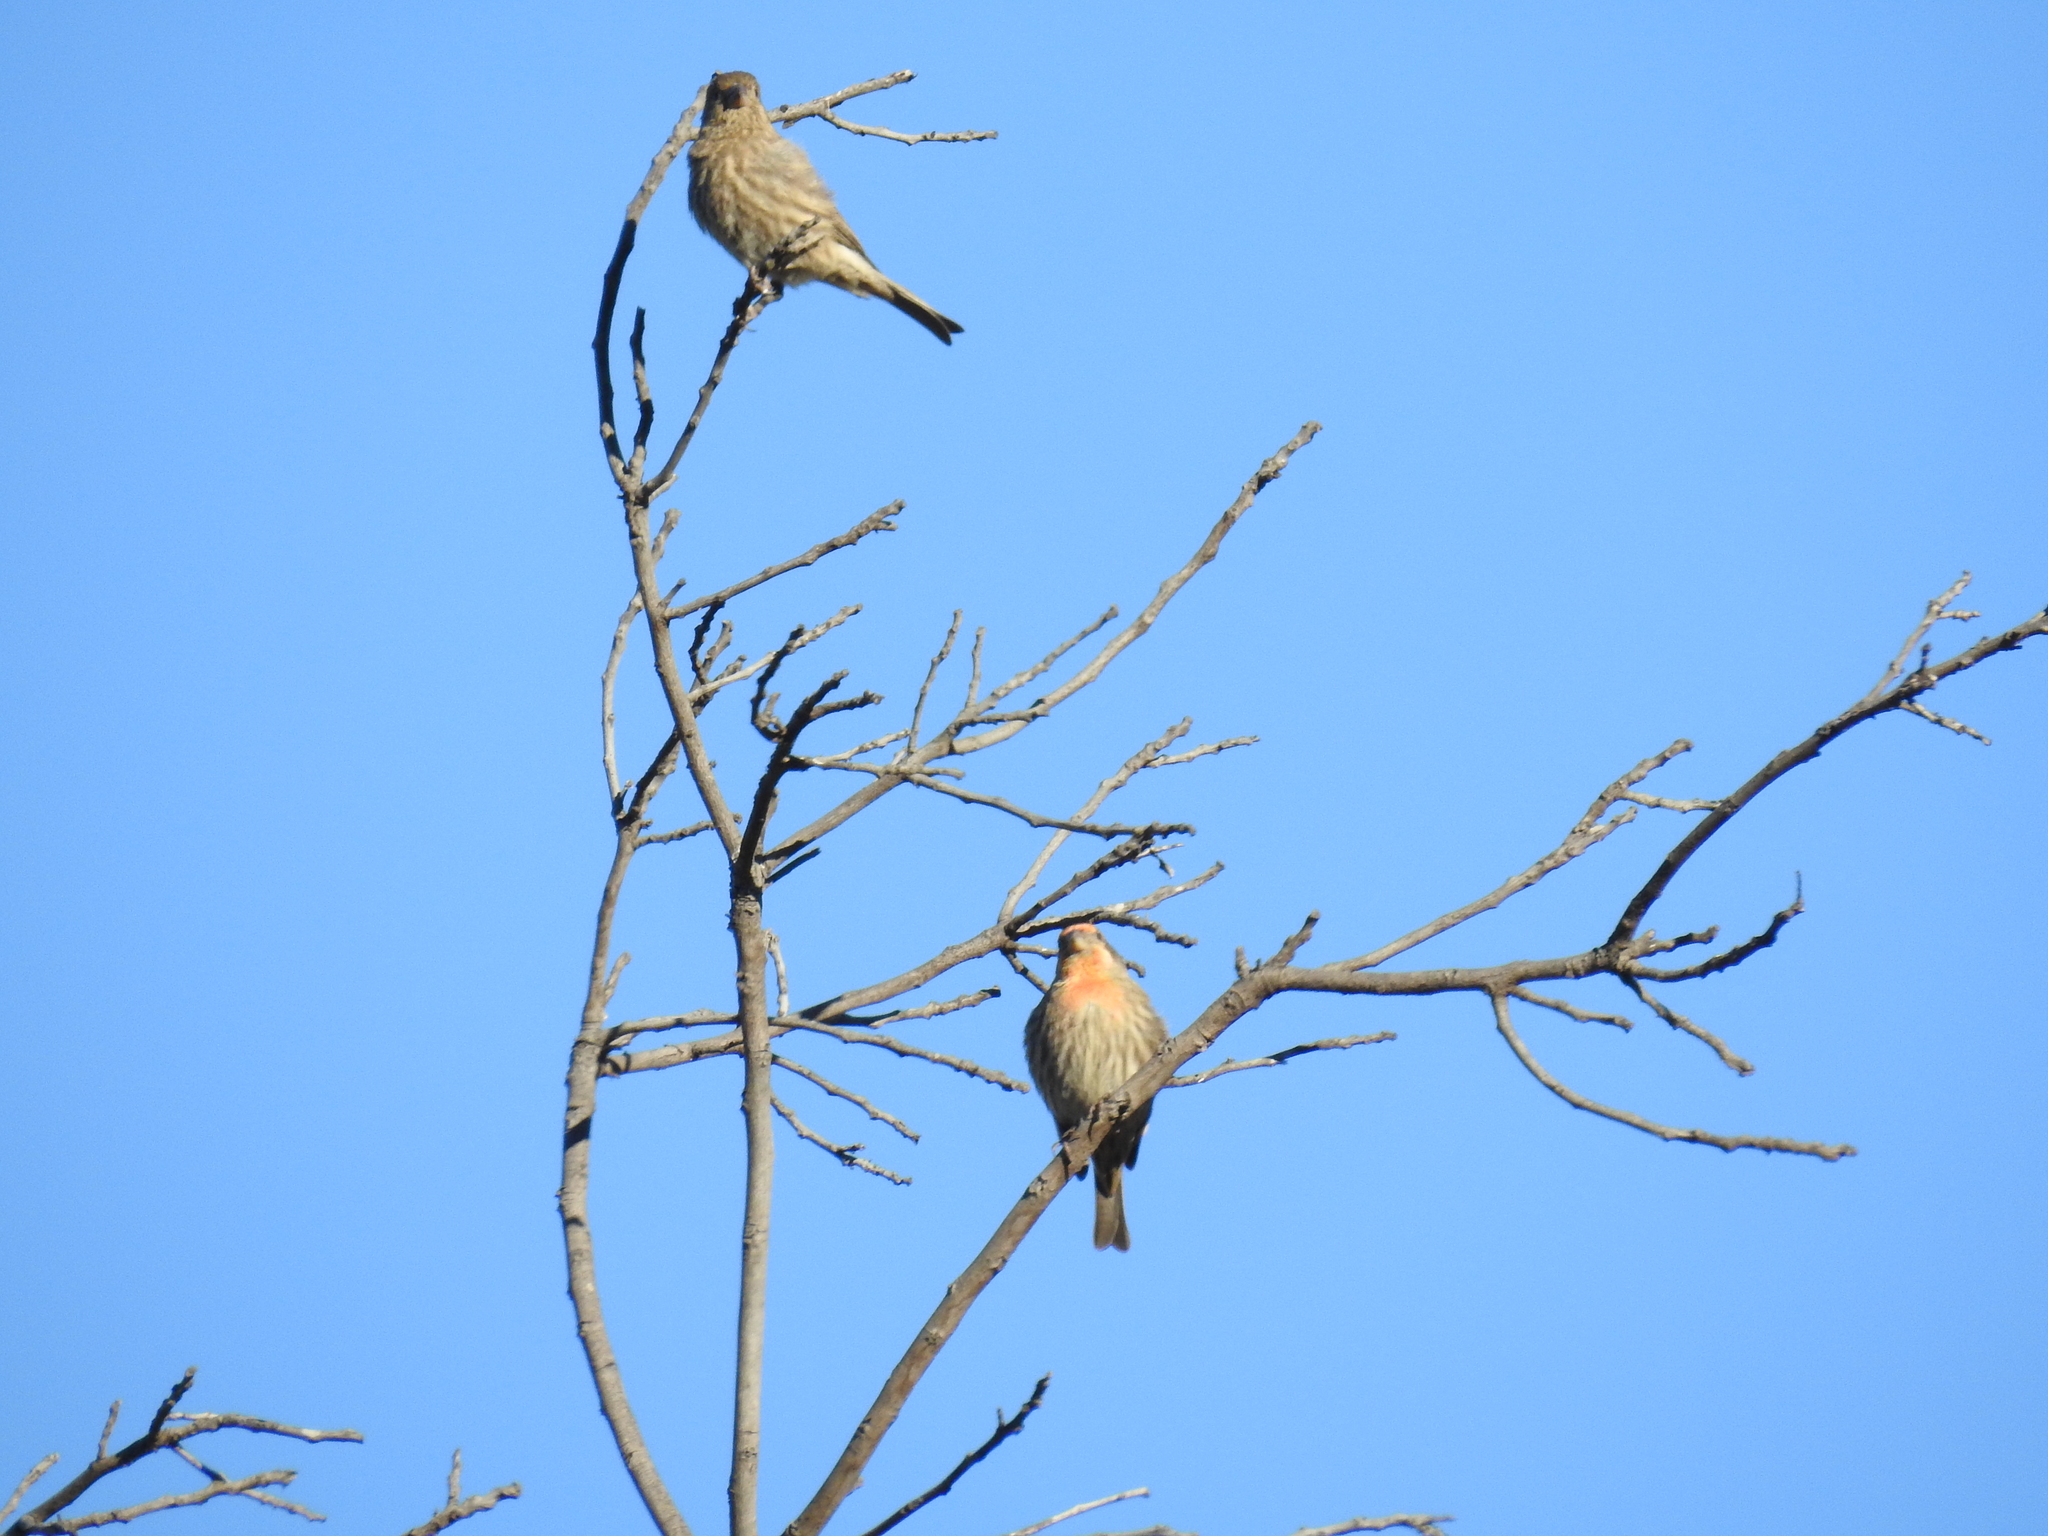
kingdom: Animalia
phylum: Chordata
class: Aves
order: Passeriformes
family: Fringillidae
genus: Haemorhous
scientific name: Haemorhous mexicanus
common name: House finch
